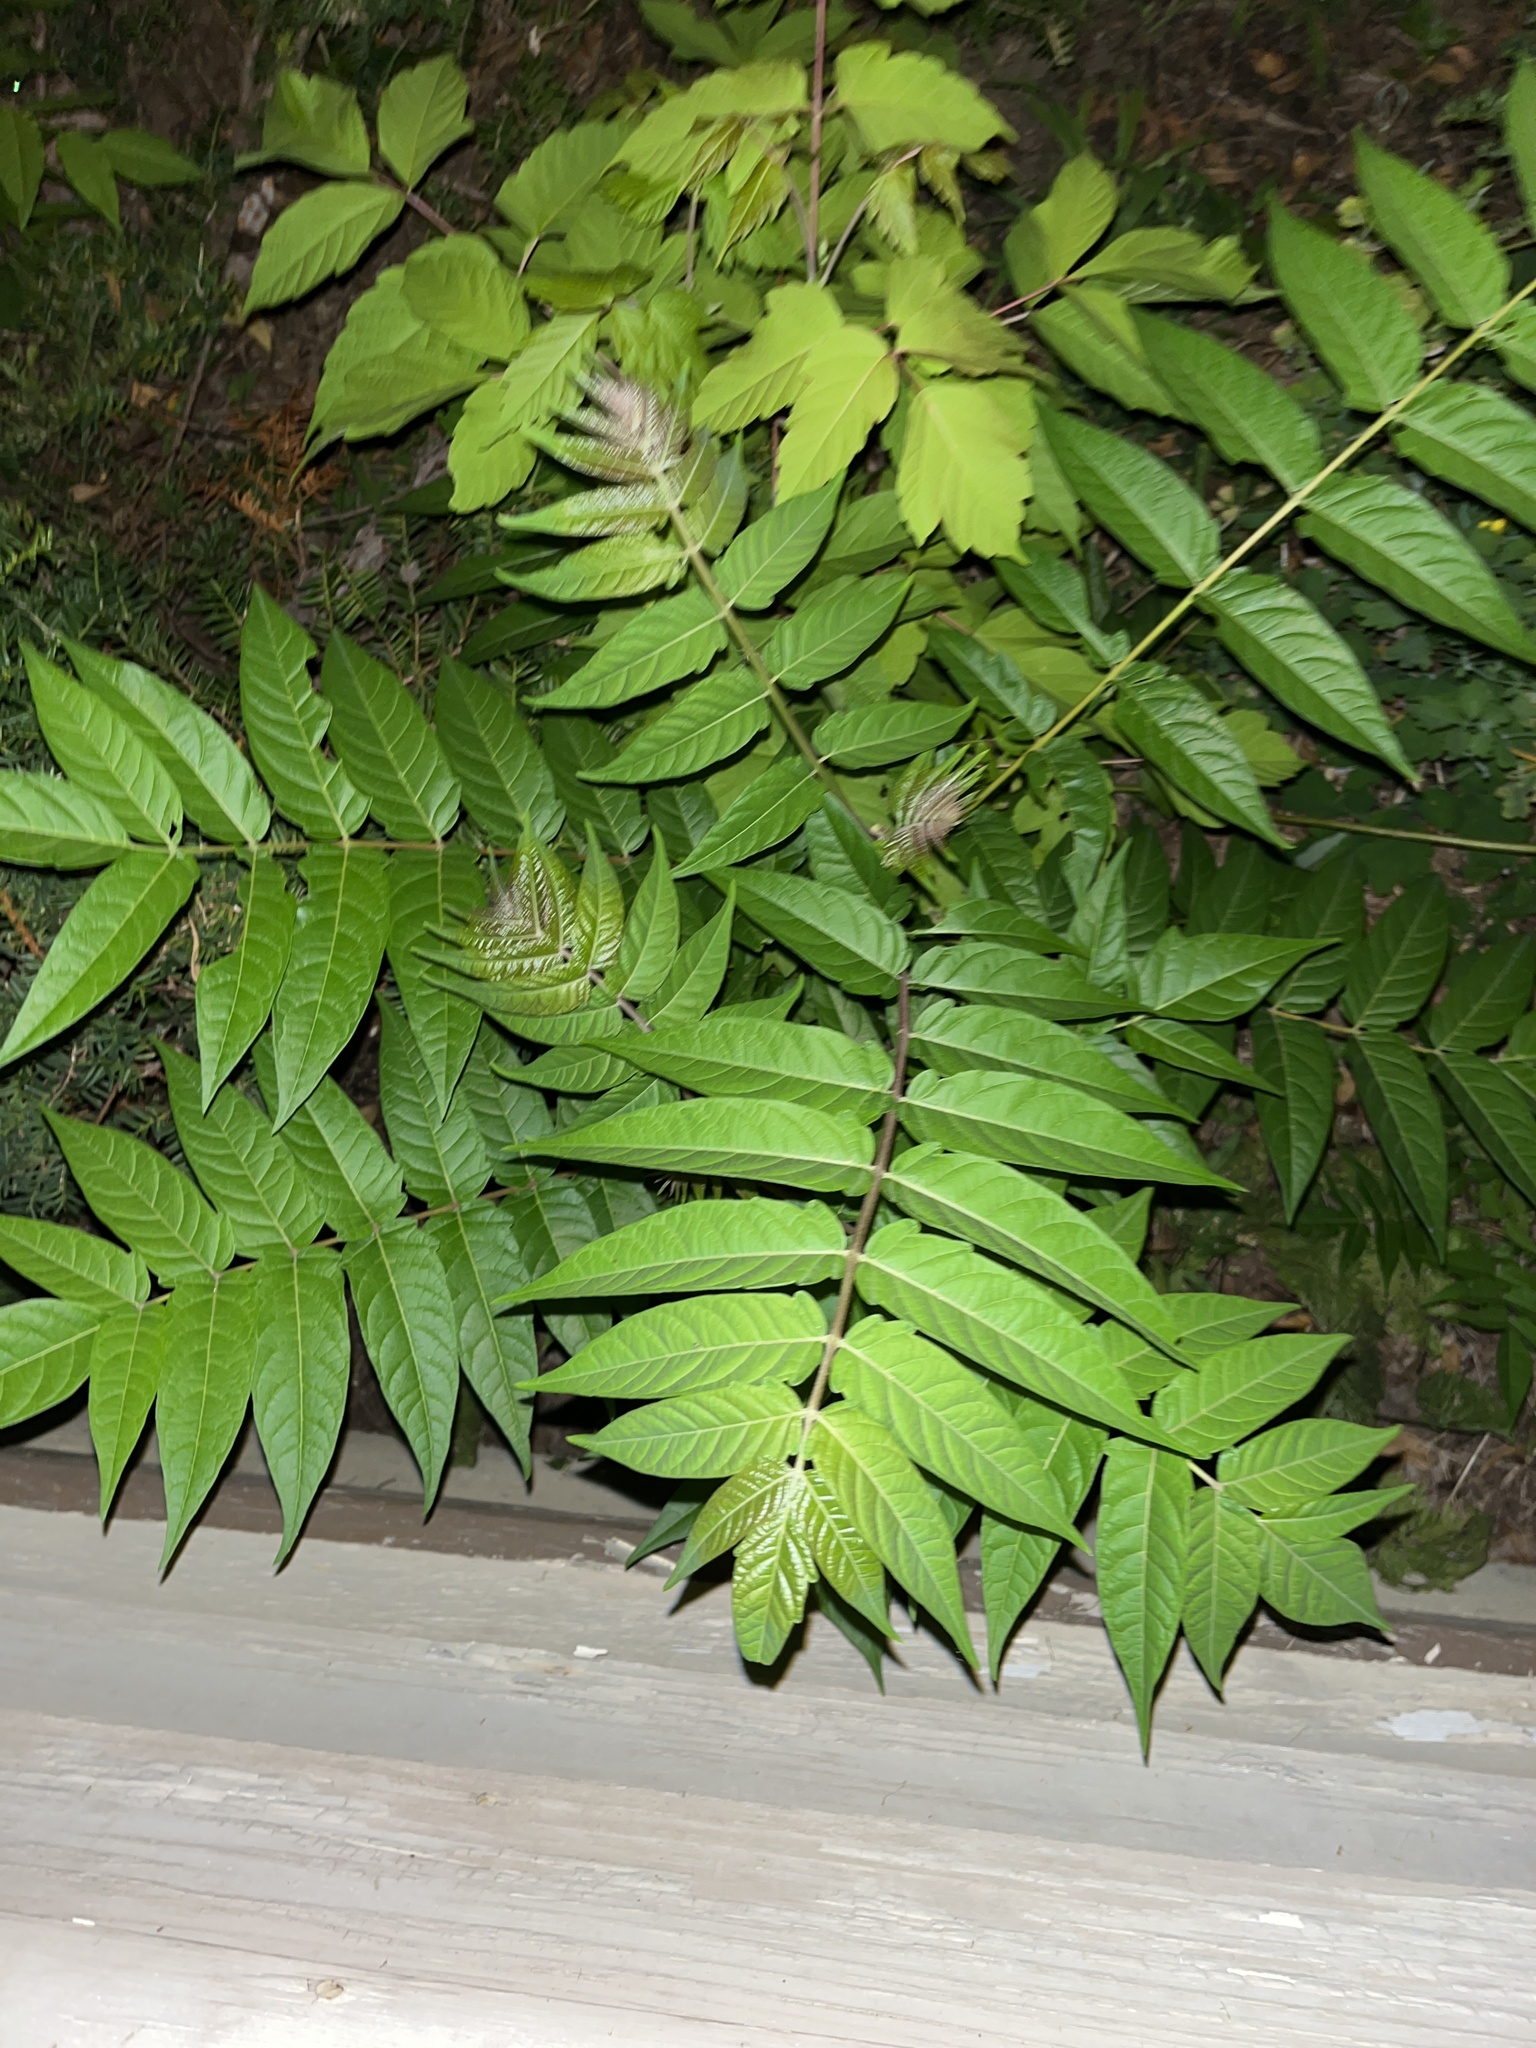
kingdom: Plantae
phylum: Tracheophyta
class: Magnoliopsida
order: Sapindales
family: Simaroubaceae
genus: Ailanthus
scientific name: Ailanthus altissima
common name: Tree-of-heaven
